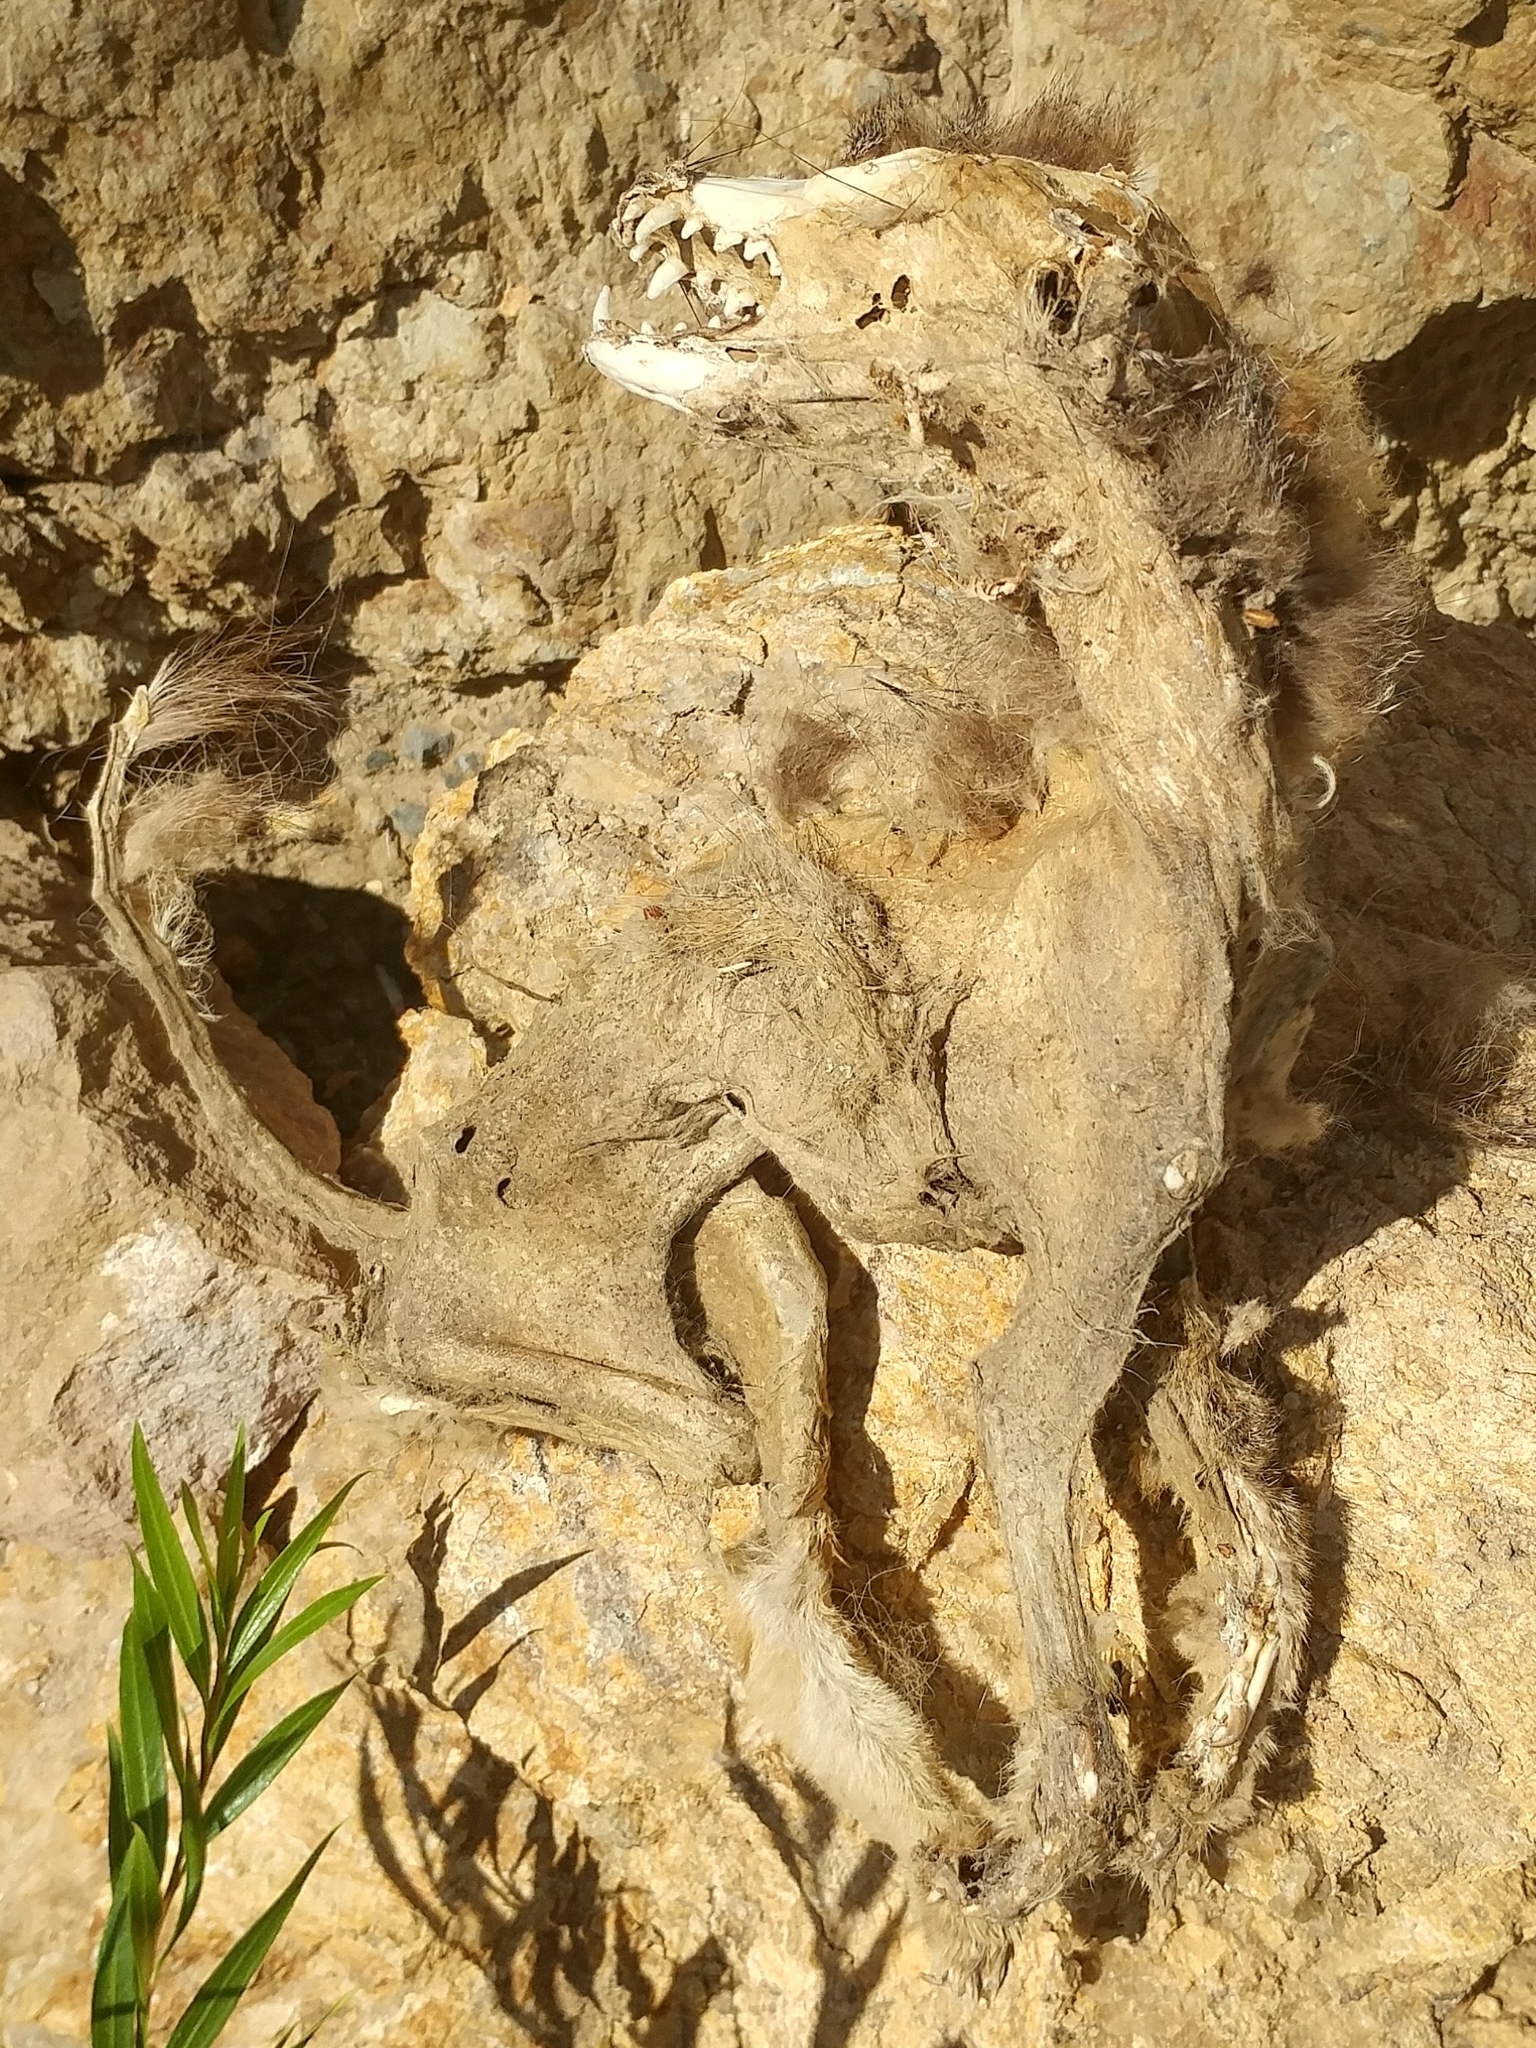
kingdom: Animalia
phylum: Chordata
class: Mammalia
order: Carnivora
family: Canidae
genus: Urocyon
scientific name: Urocyon littoralis
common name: Island gray fox
